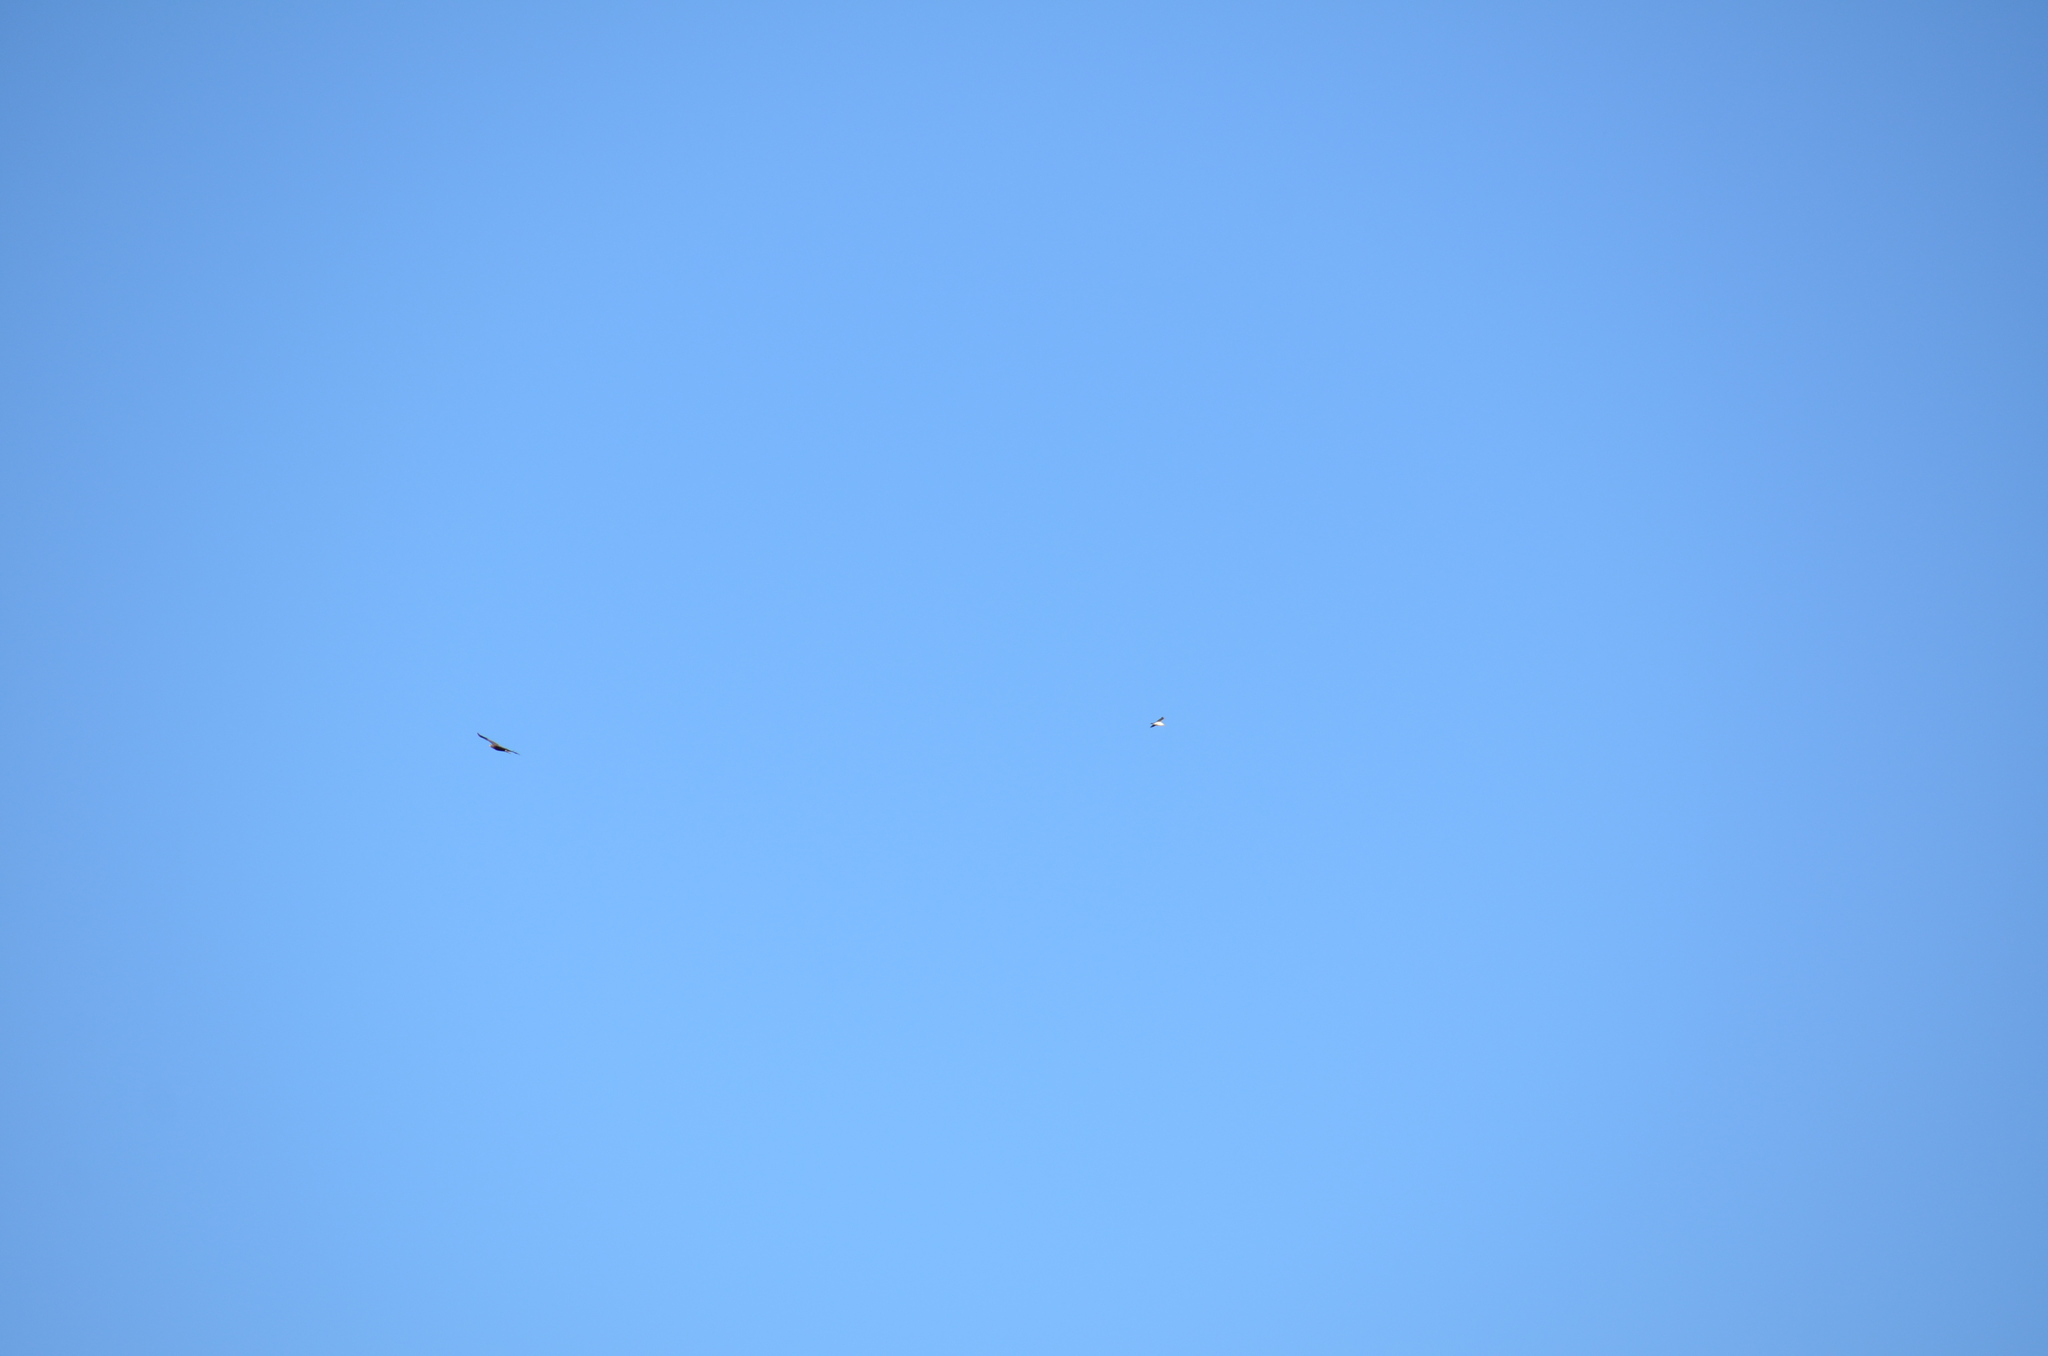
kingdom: Animalia
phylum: Chordata
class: Aves
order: Accipitriformes
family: Accipitridae
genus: Haliaeetus
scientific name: Haliaeetus leucocephalus
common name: Bald eagle
